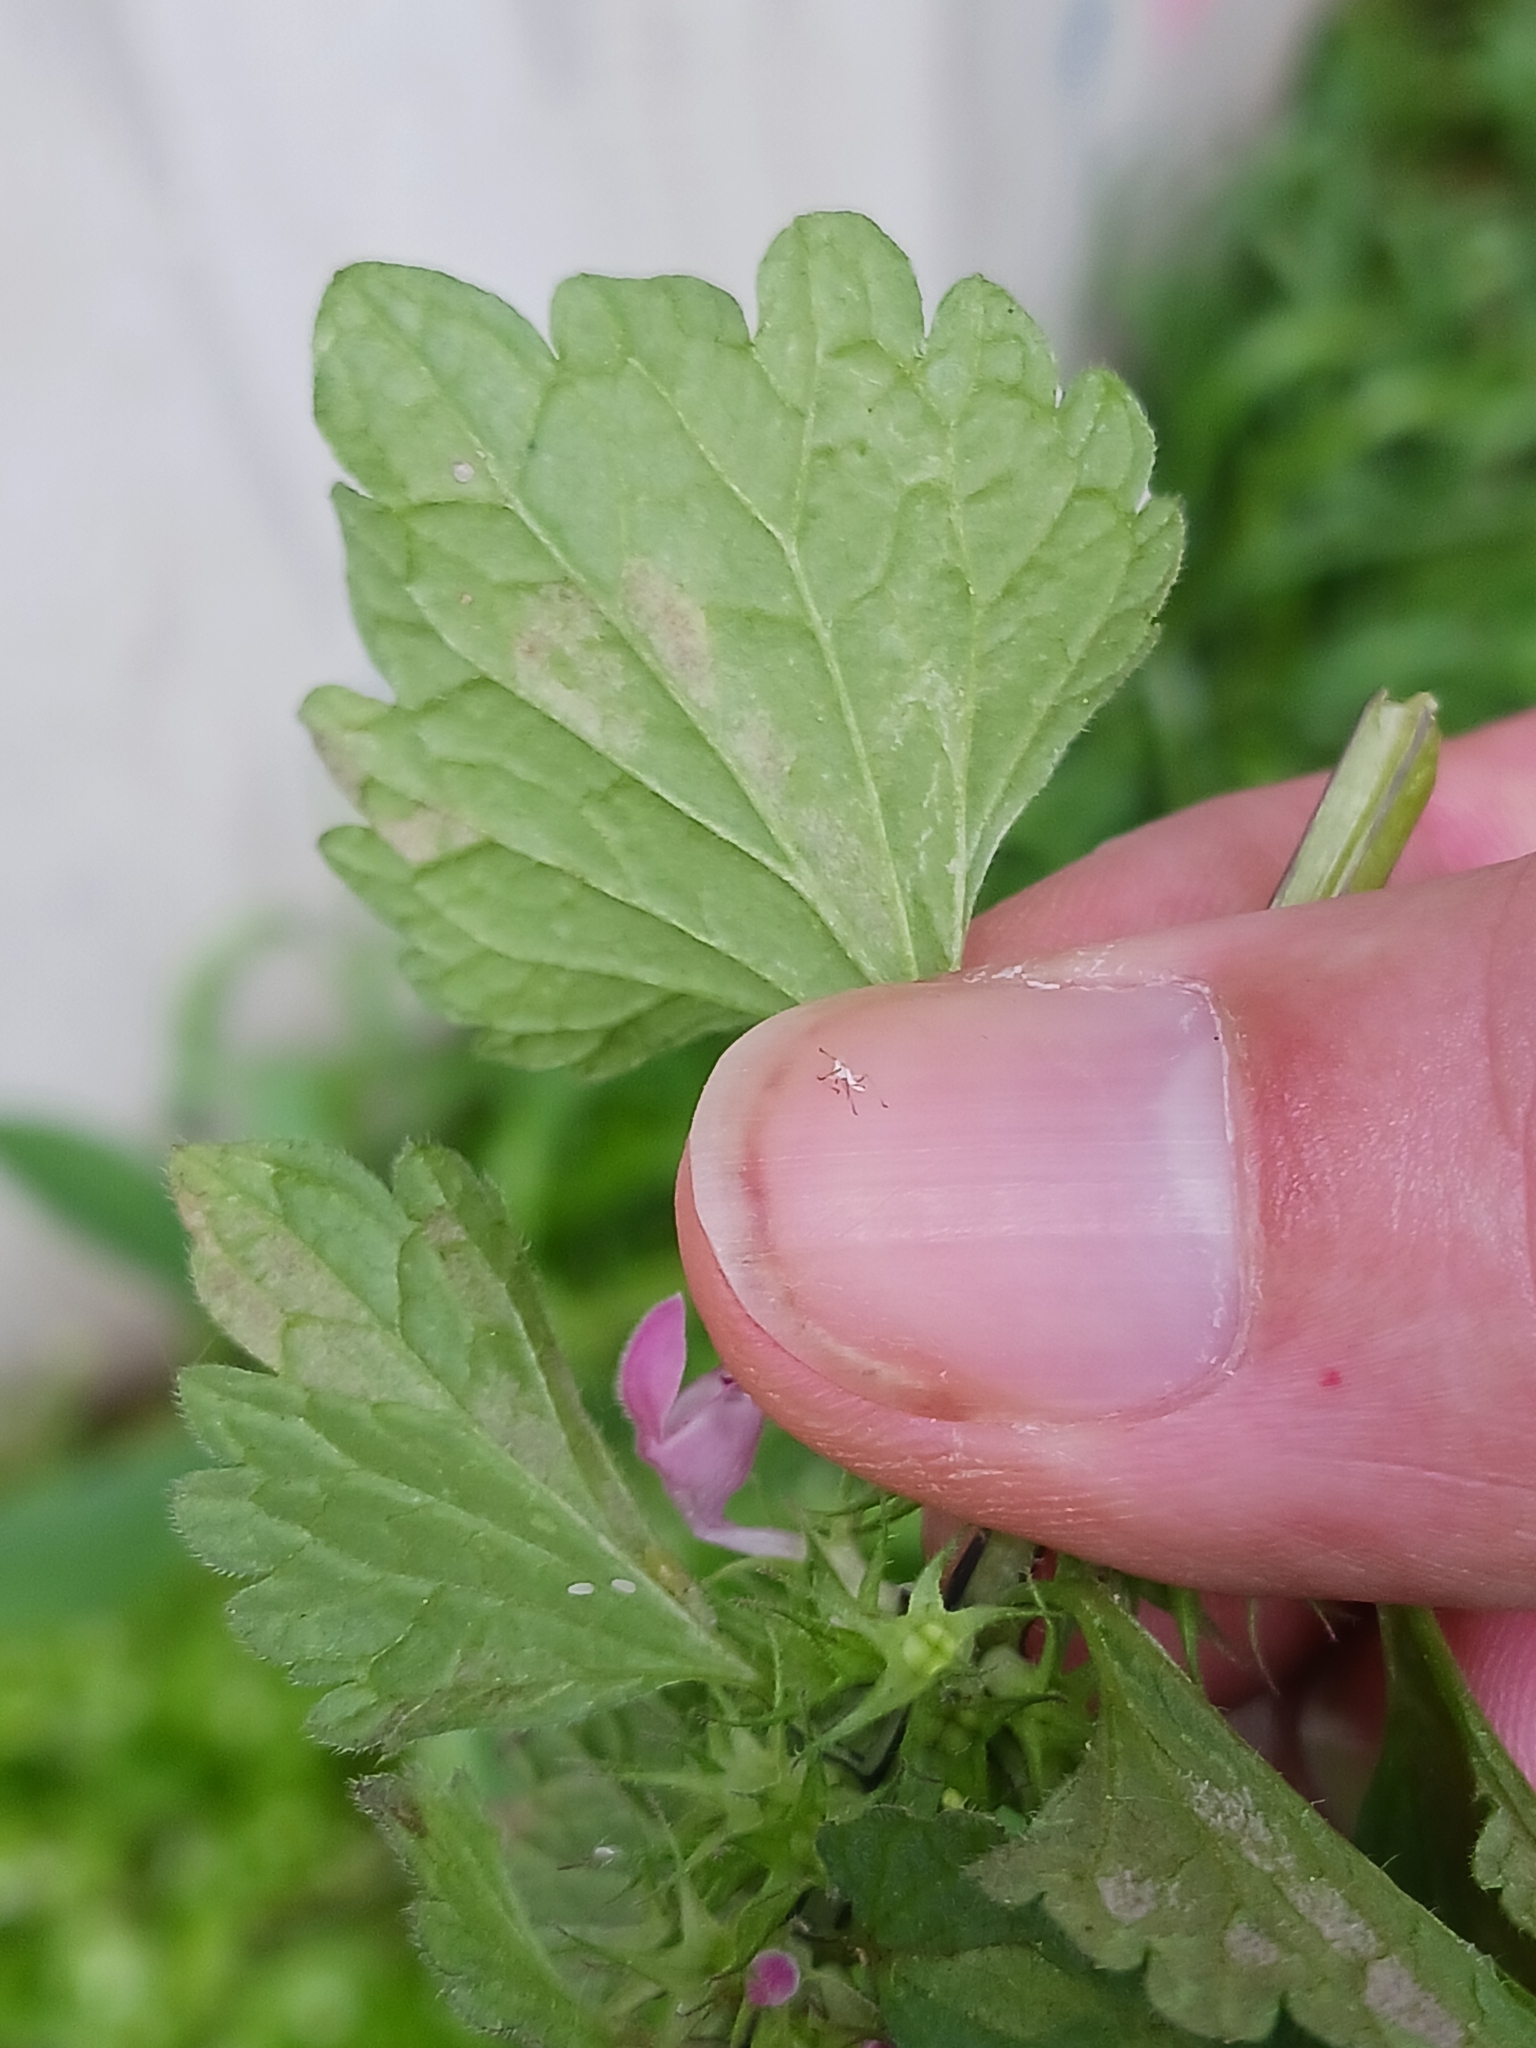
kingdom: Chromista
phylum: Oomycota
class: Peronosporea
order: Peronosporales
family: Peronosporaceae
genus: Peronospora
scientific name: Peronospora lamii
